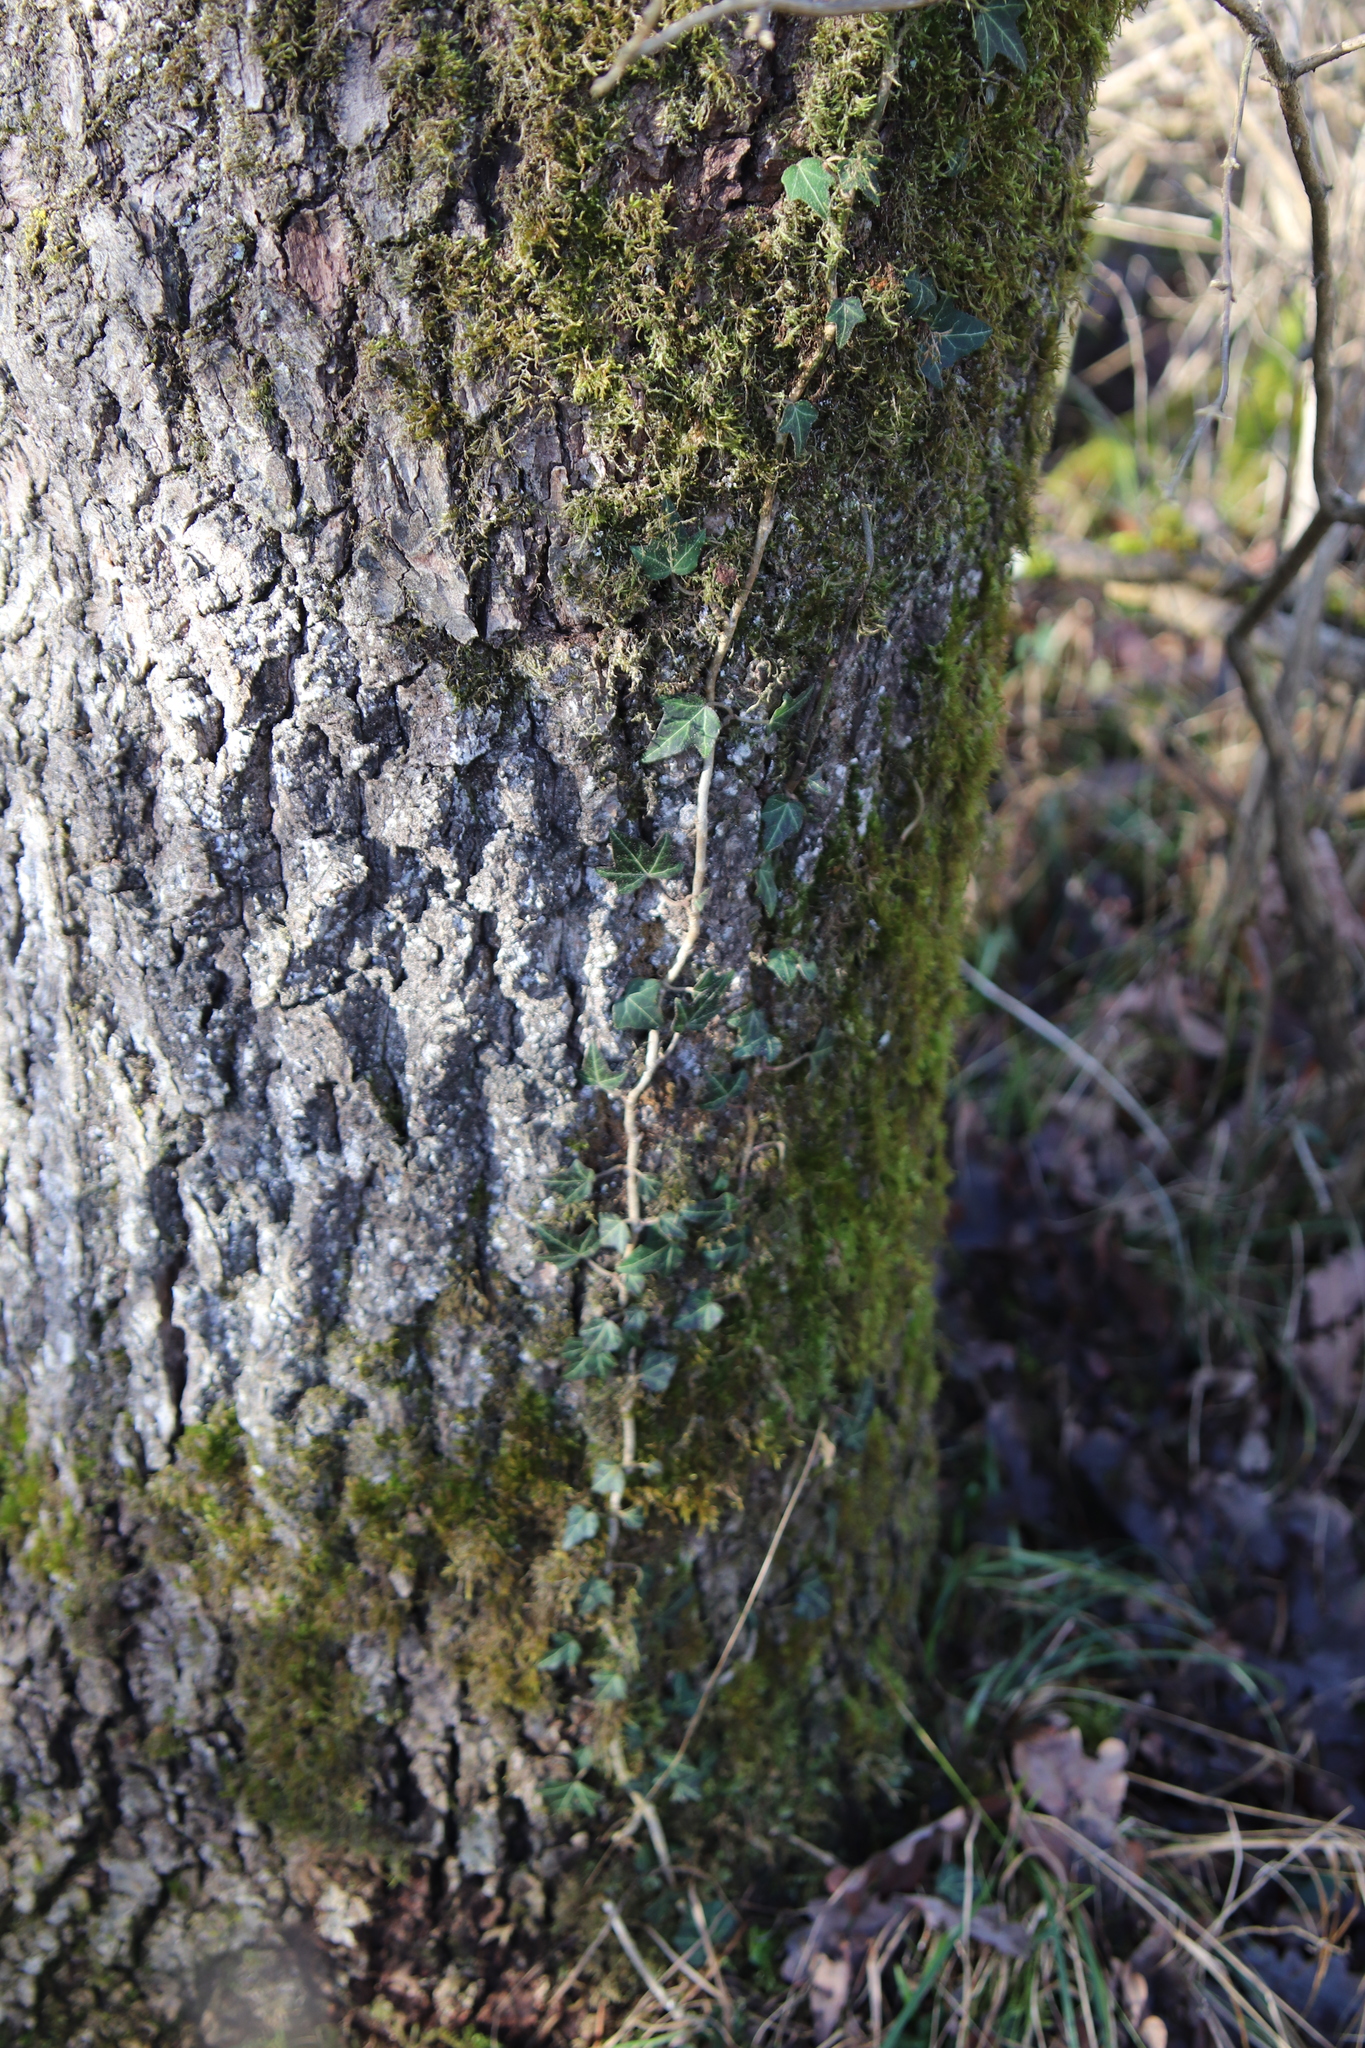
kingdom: Plantae
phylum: Tracheophyta
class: Magnoliopsida
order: Apiales
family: Araliaceae
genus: Hedera
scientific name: Hedera helix
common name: Ivy
